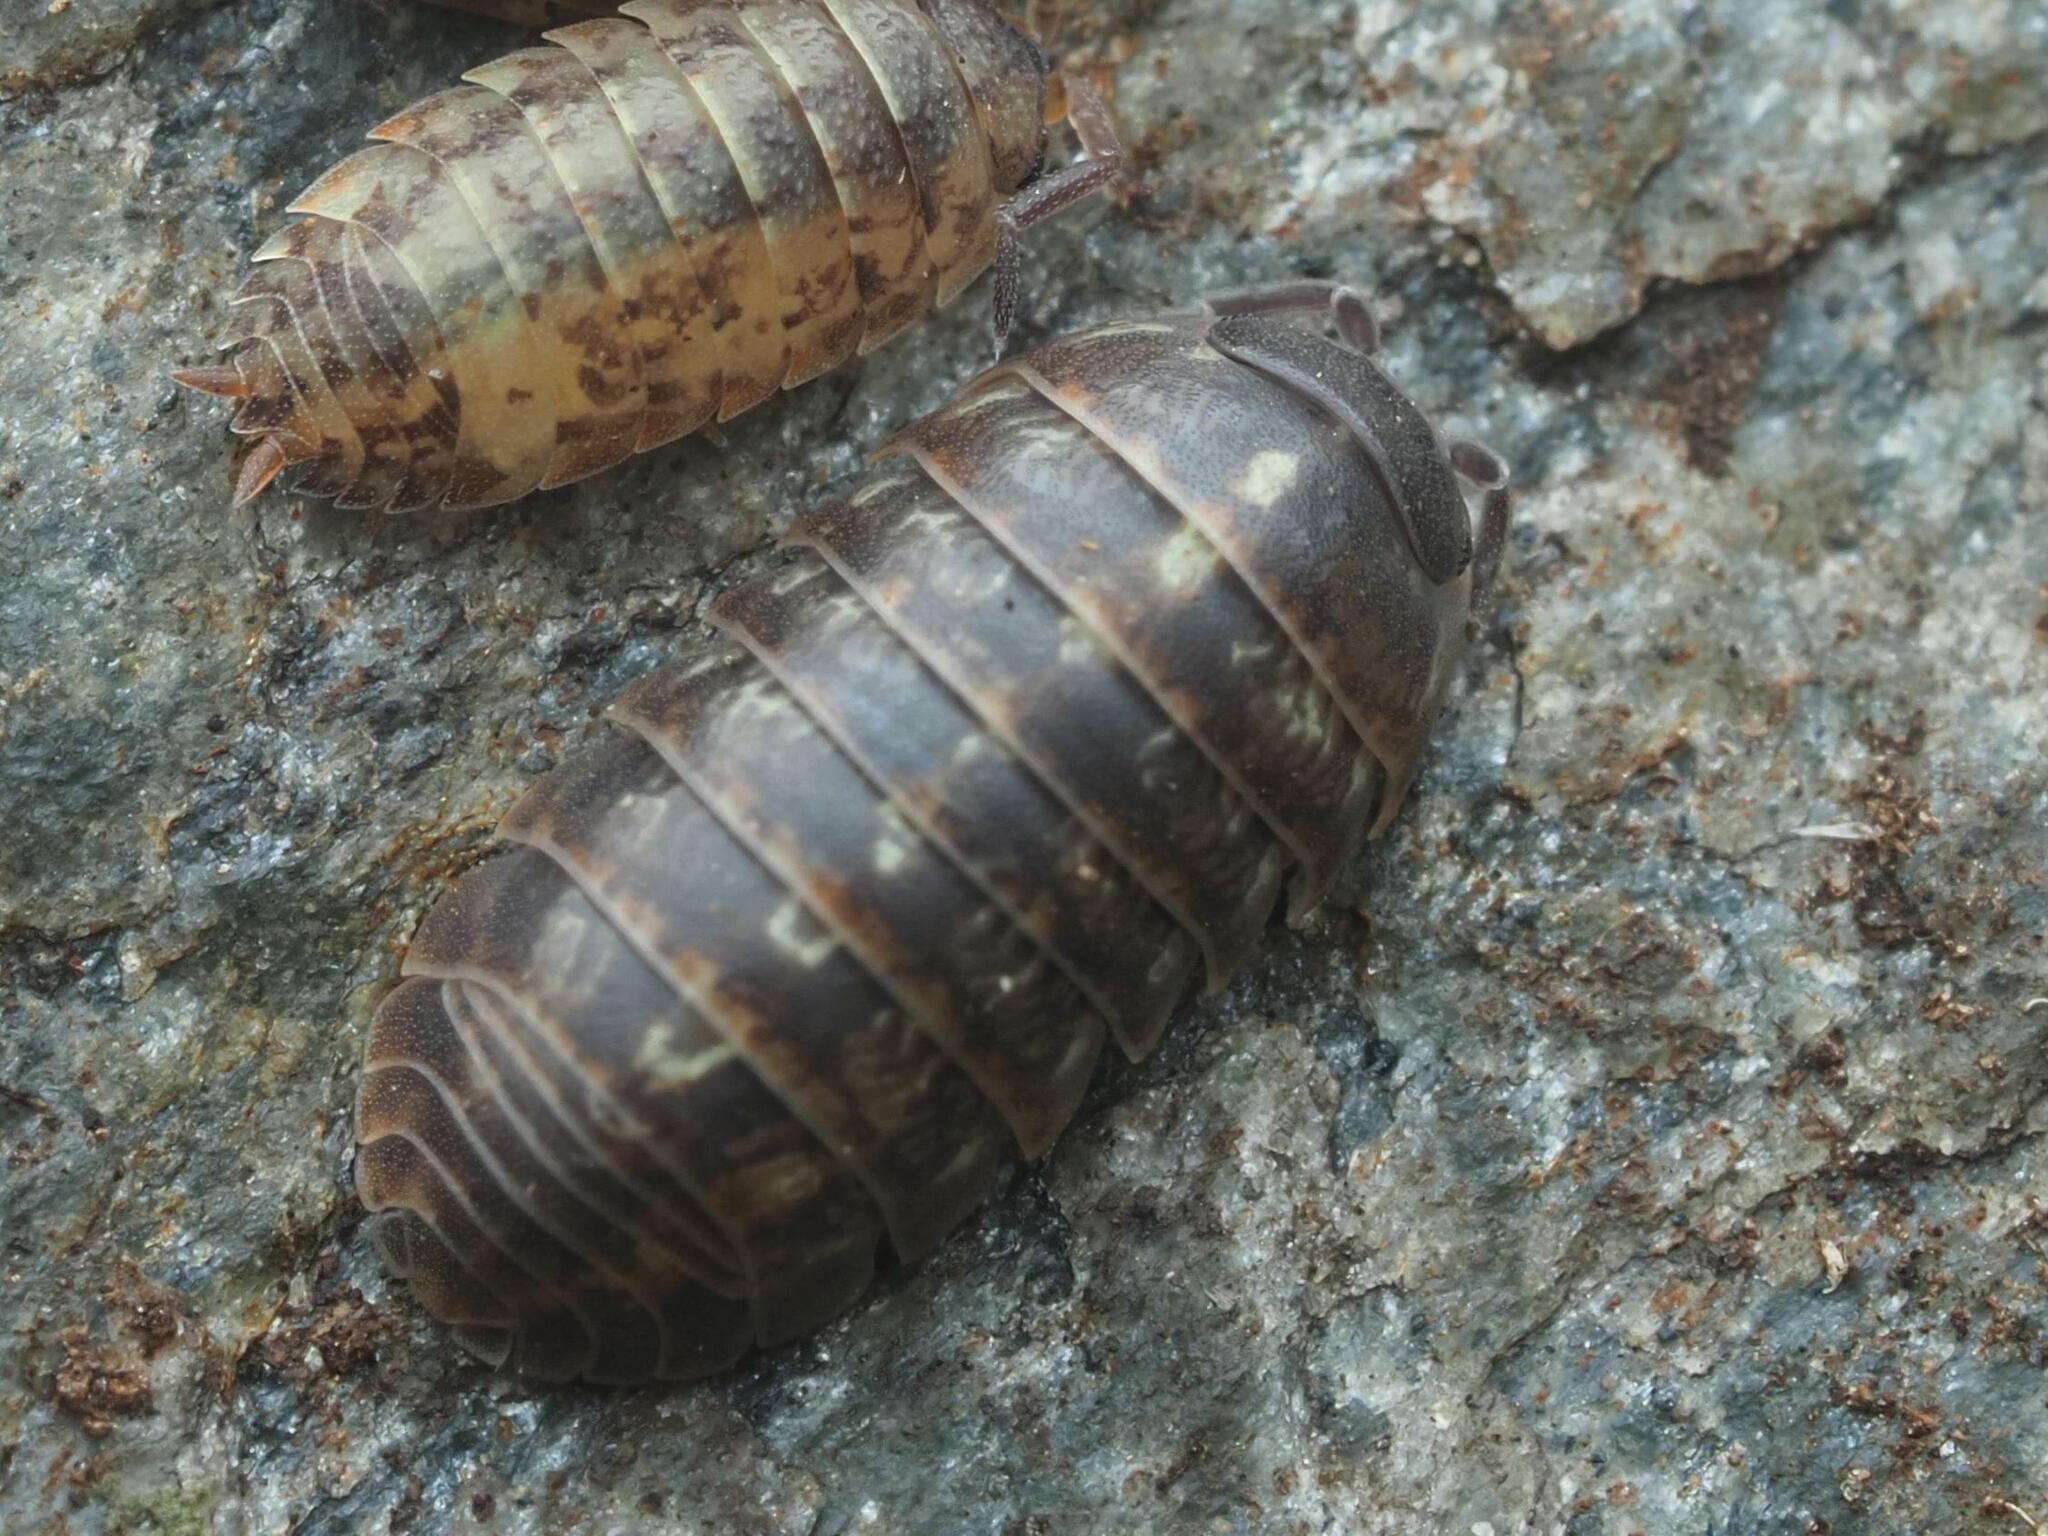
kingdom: Animalia
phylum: Arthropoda
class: Malacostraca
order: Isopoda
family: Armadillidiidae
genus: Armadillidium
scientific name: Armadillidium vulgare
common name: Common pill woodlouse
